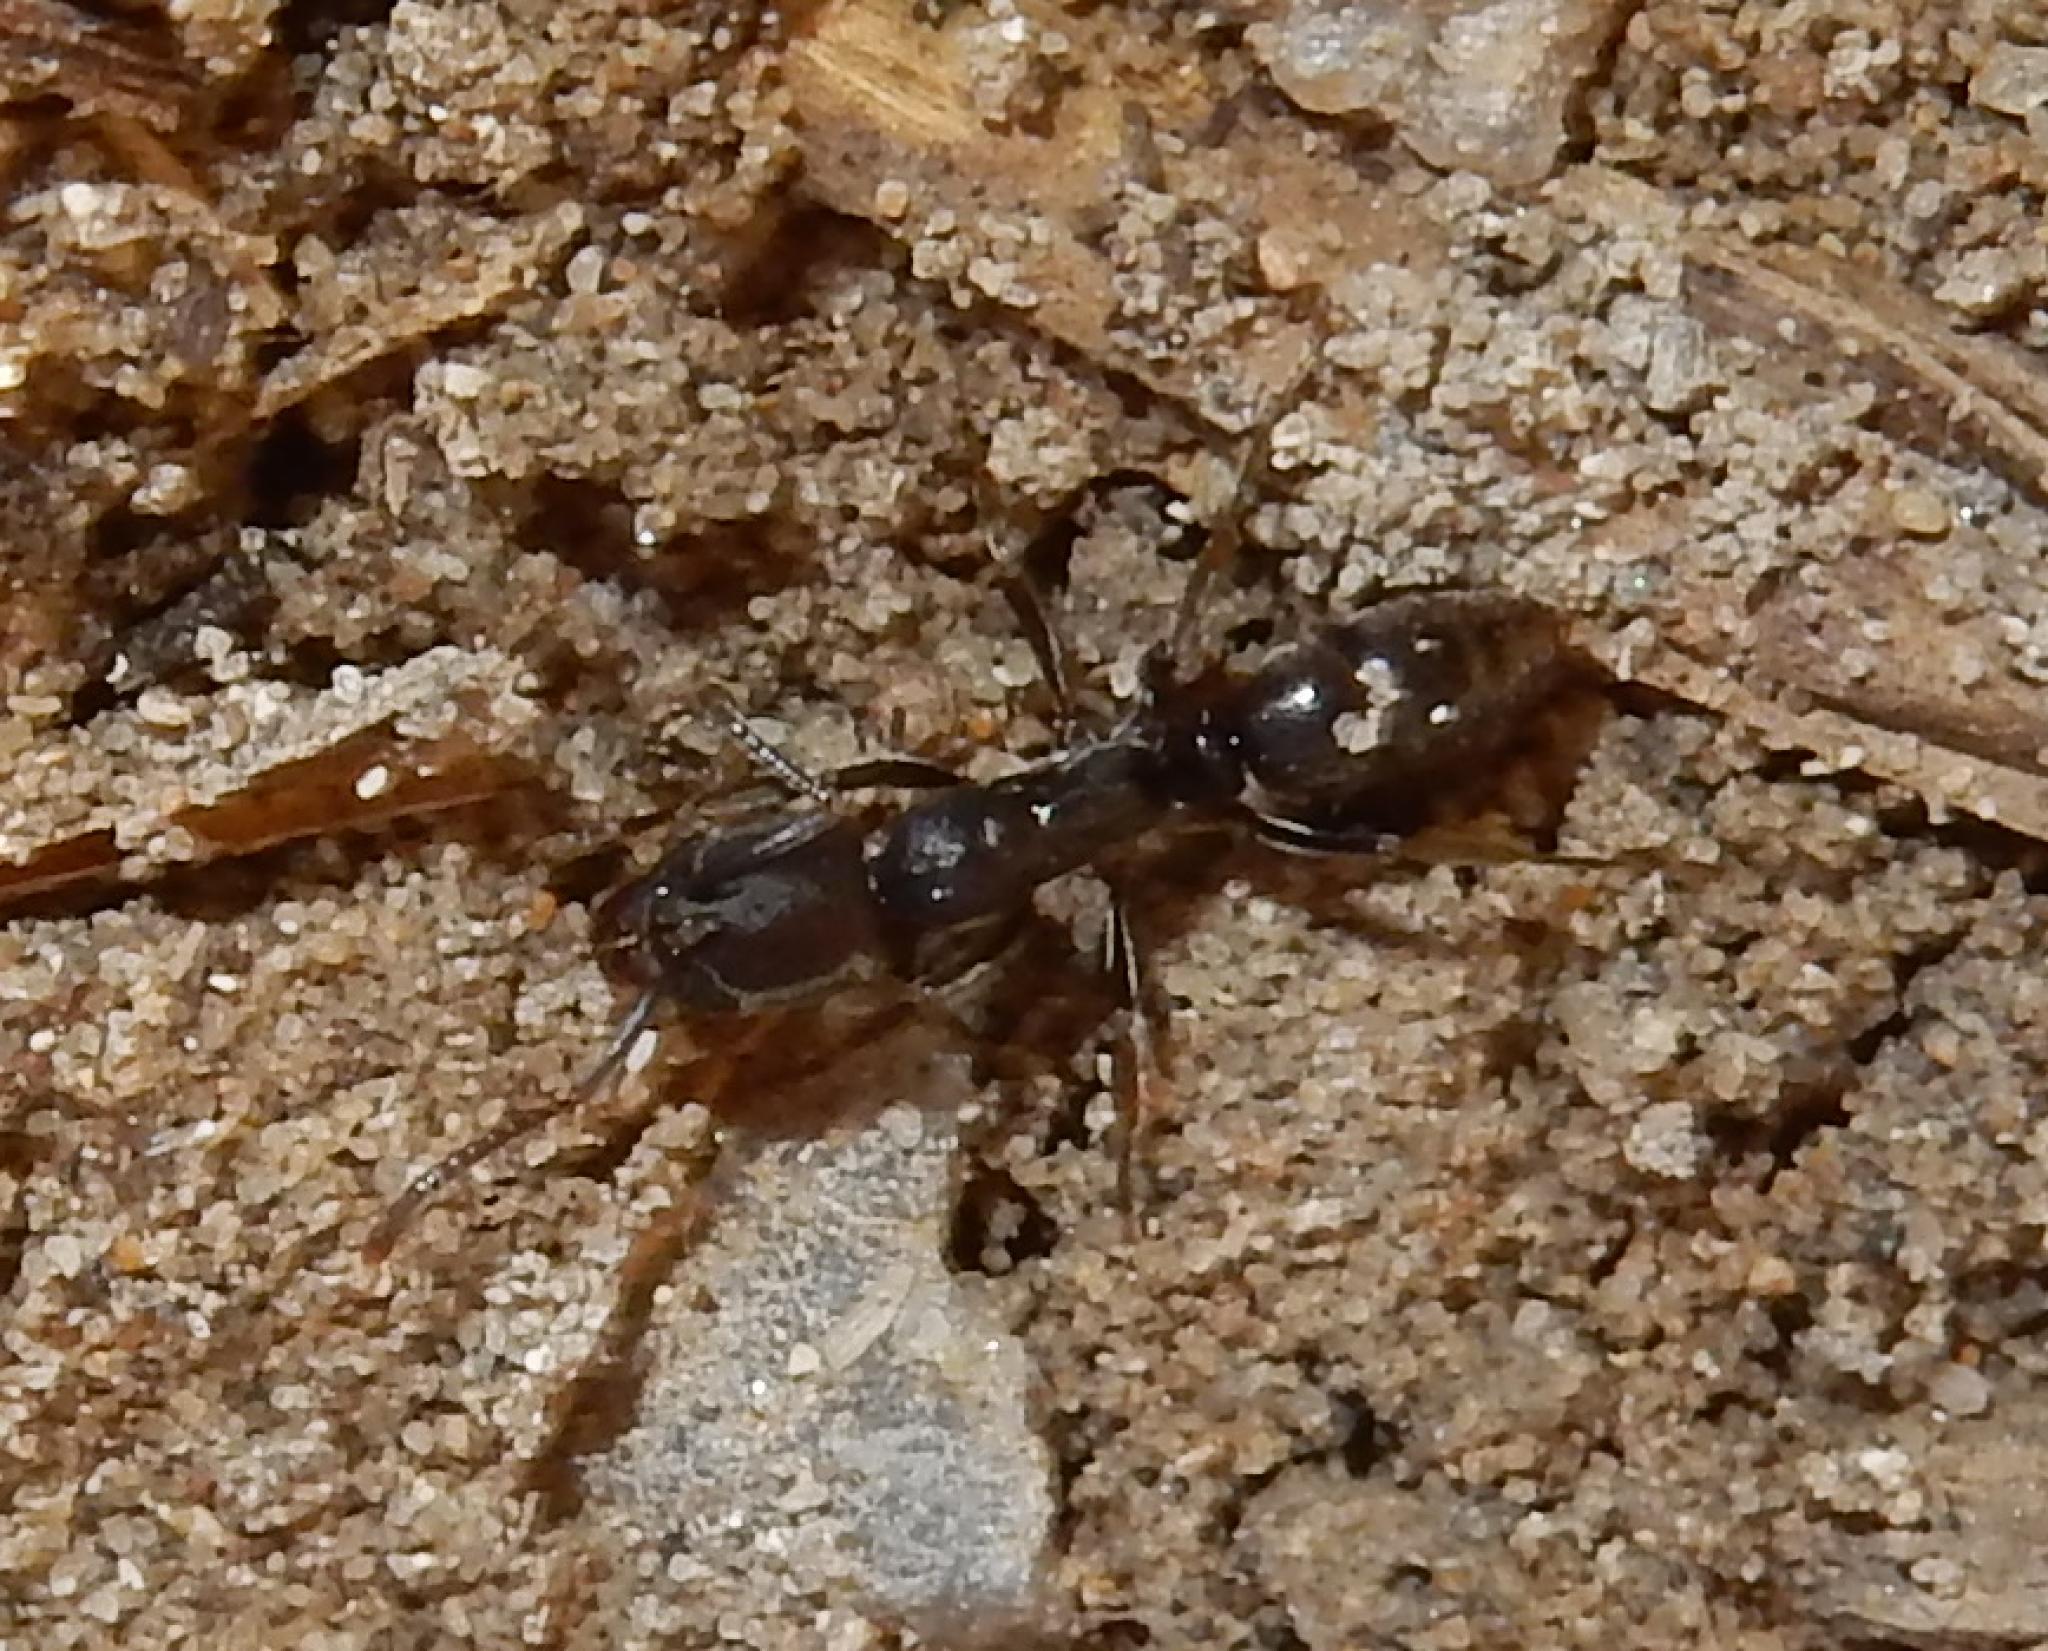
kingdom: Animalia
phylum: Arthropoda
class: Insecta
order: Hymenoptera
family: Formicidae
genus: Mesoponera
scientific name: Mesoponera caffraria
